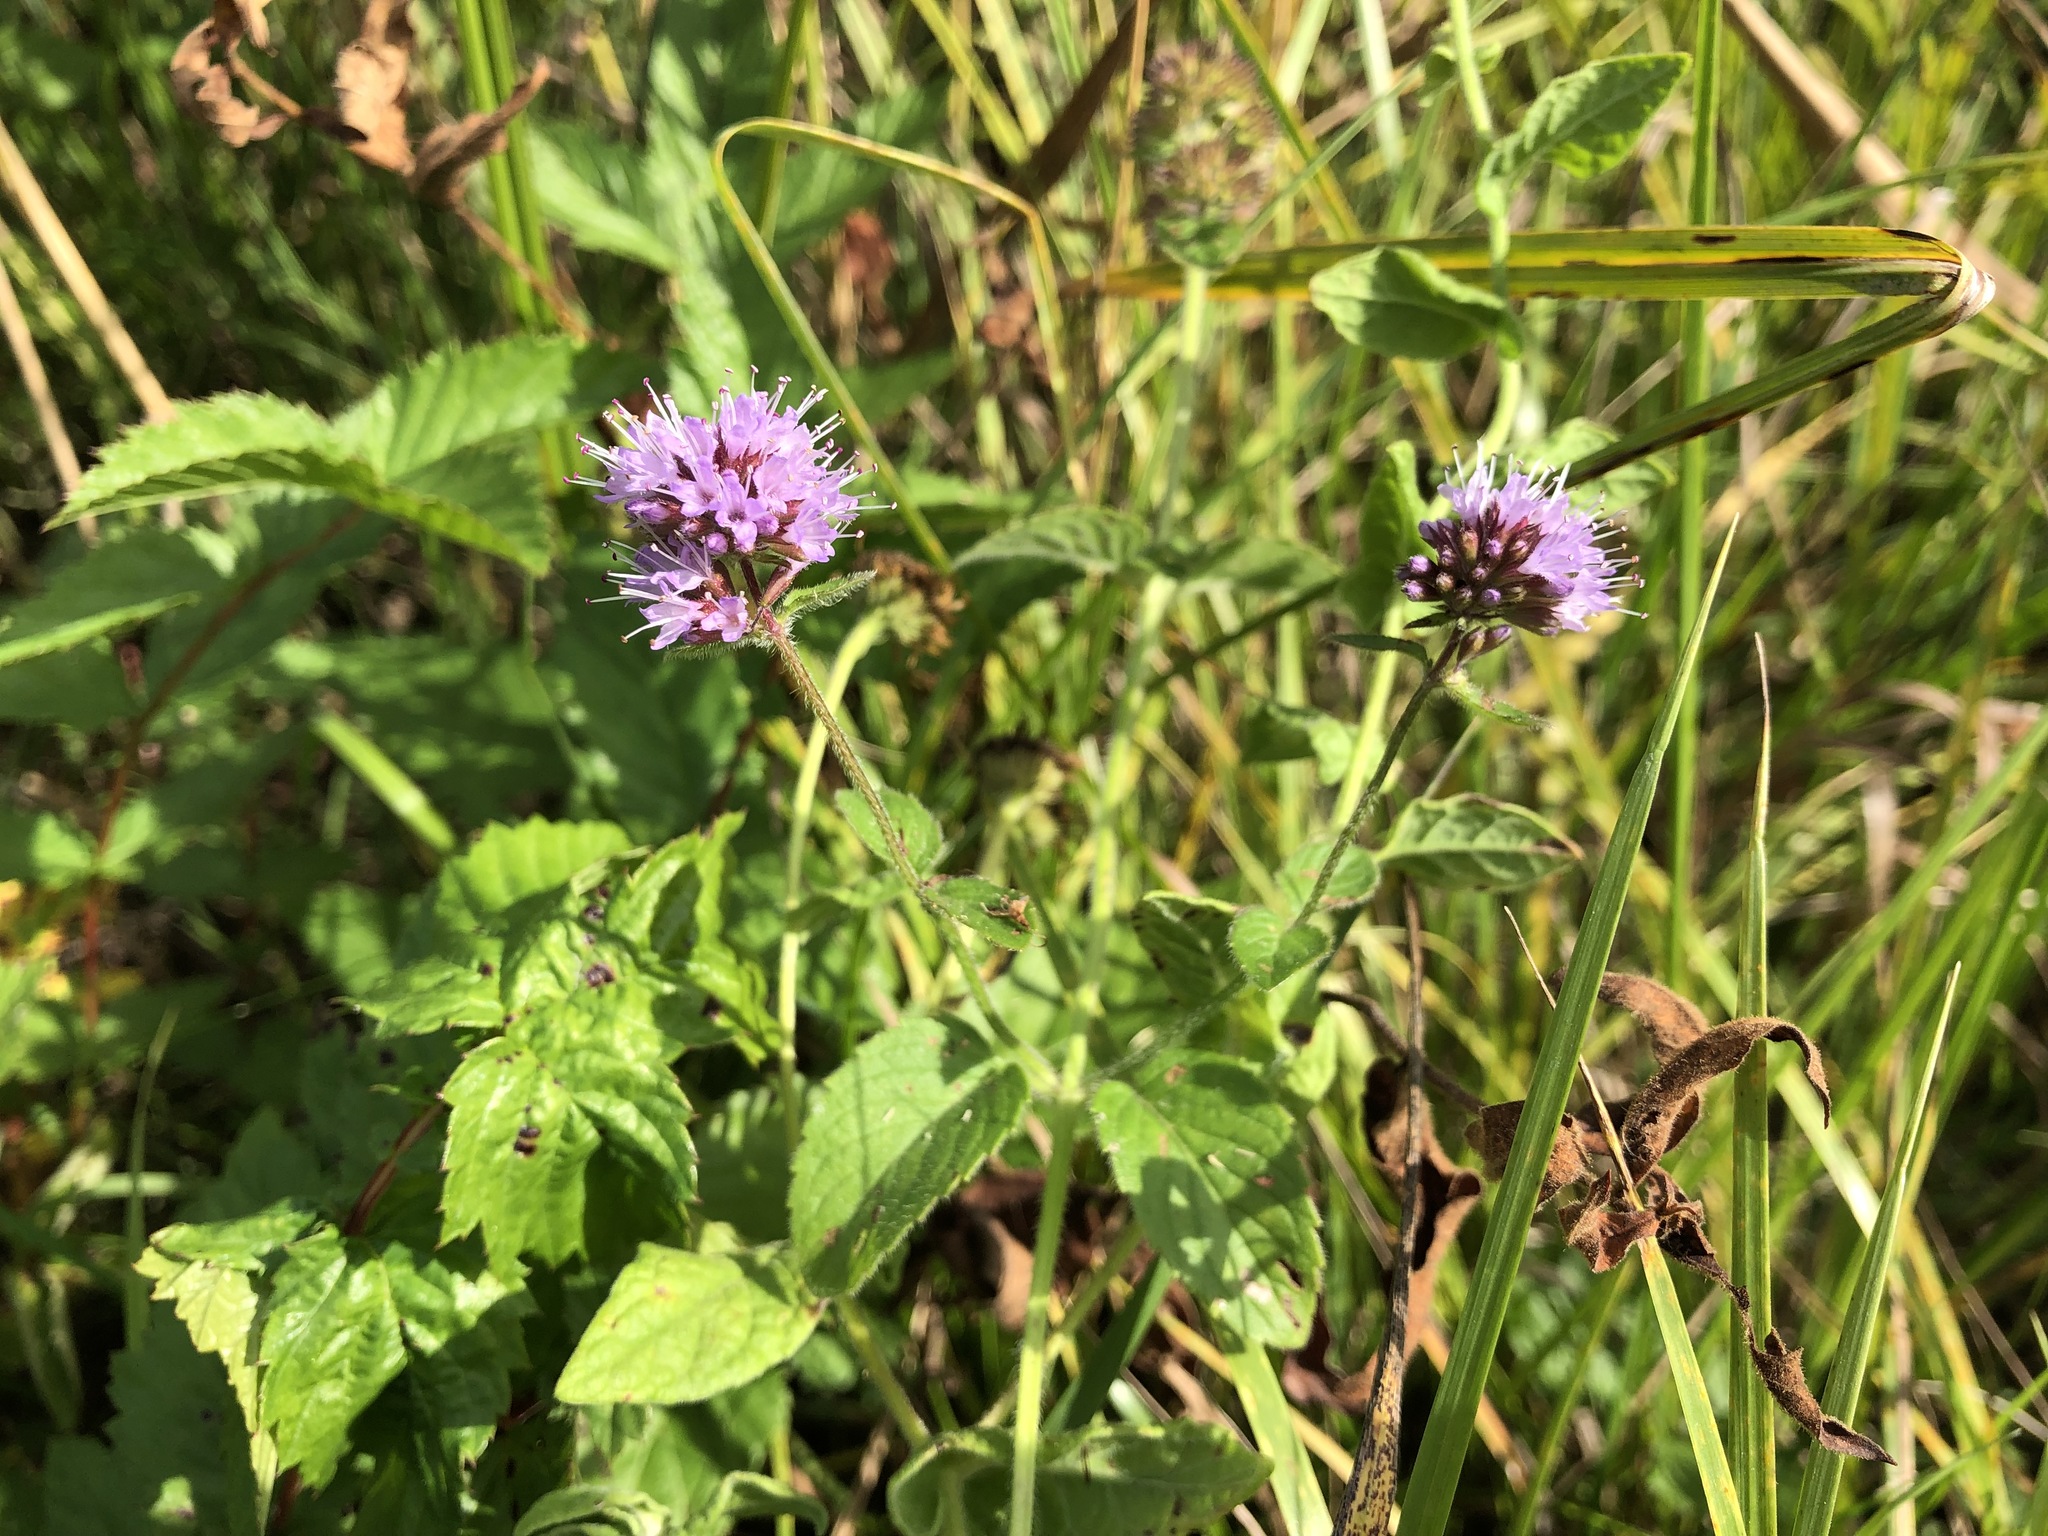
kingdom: Plantae
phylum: Tracheophyta
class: Magnoliopsida
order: Lamiales
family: Lamiaceae
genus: Mentha
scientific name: Mentha aquatica
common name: Water mint
